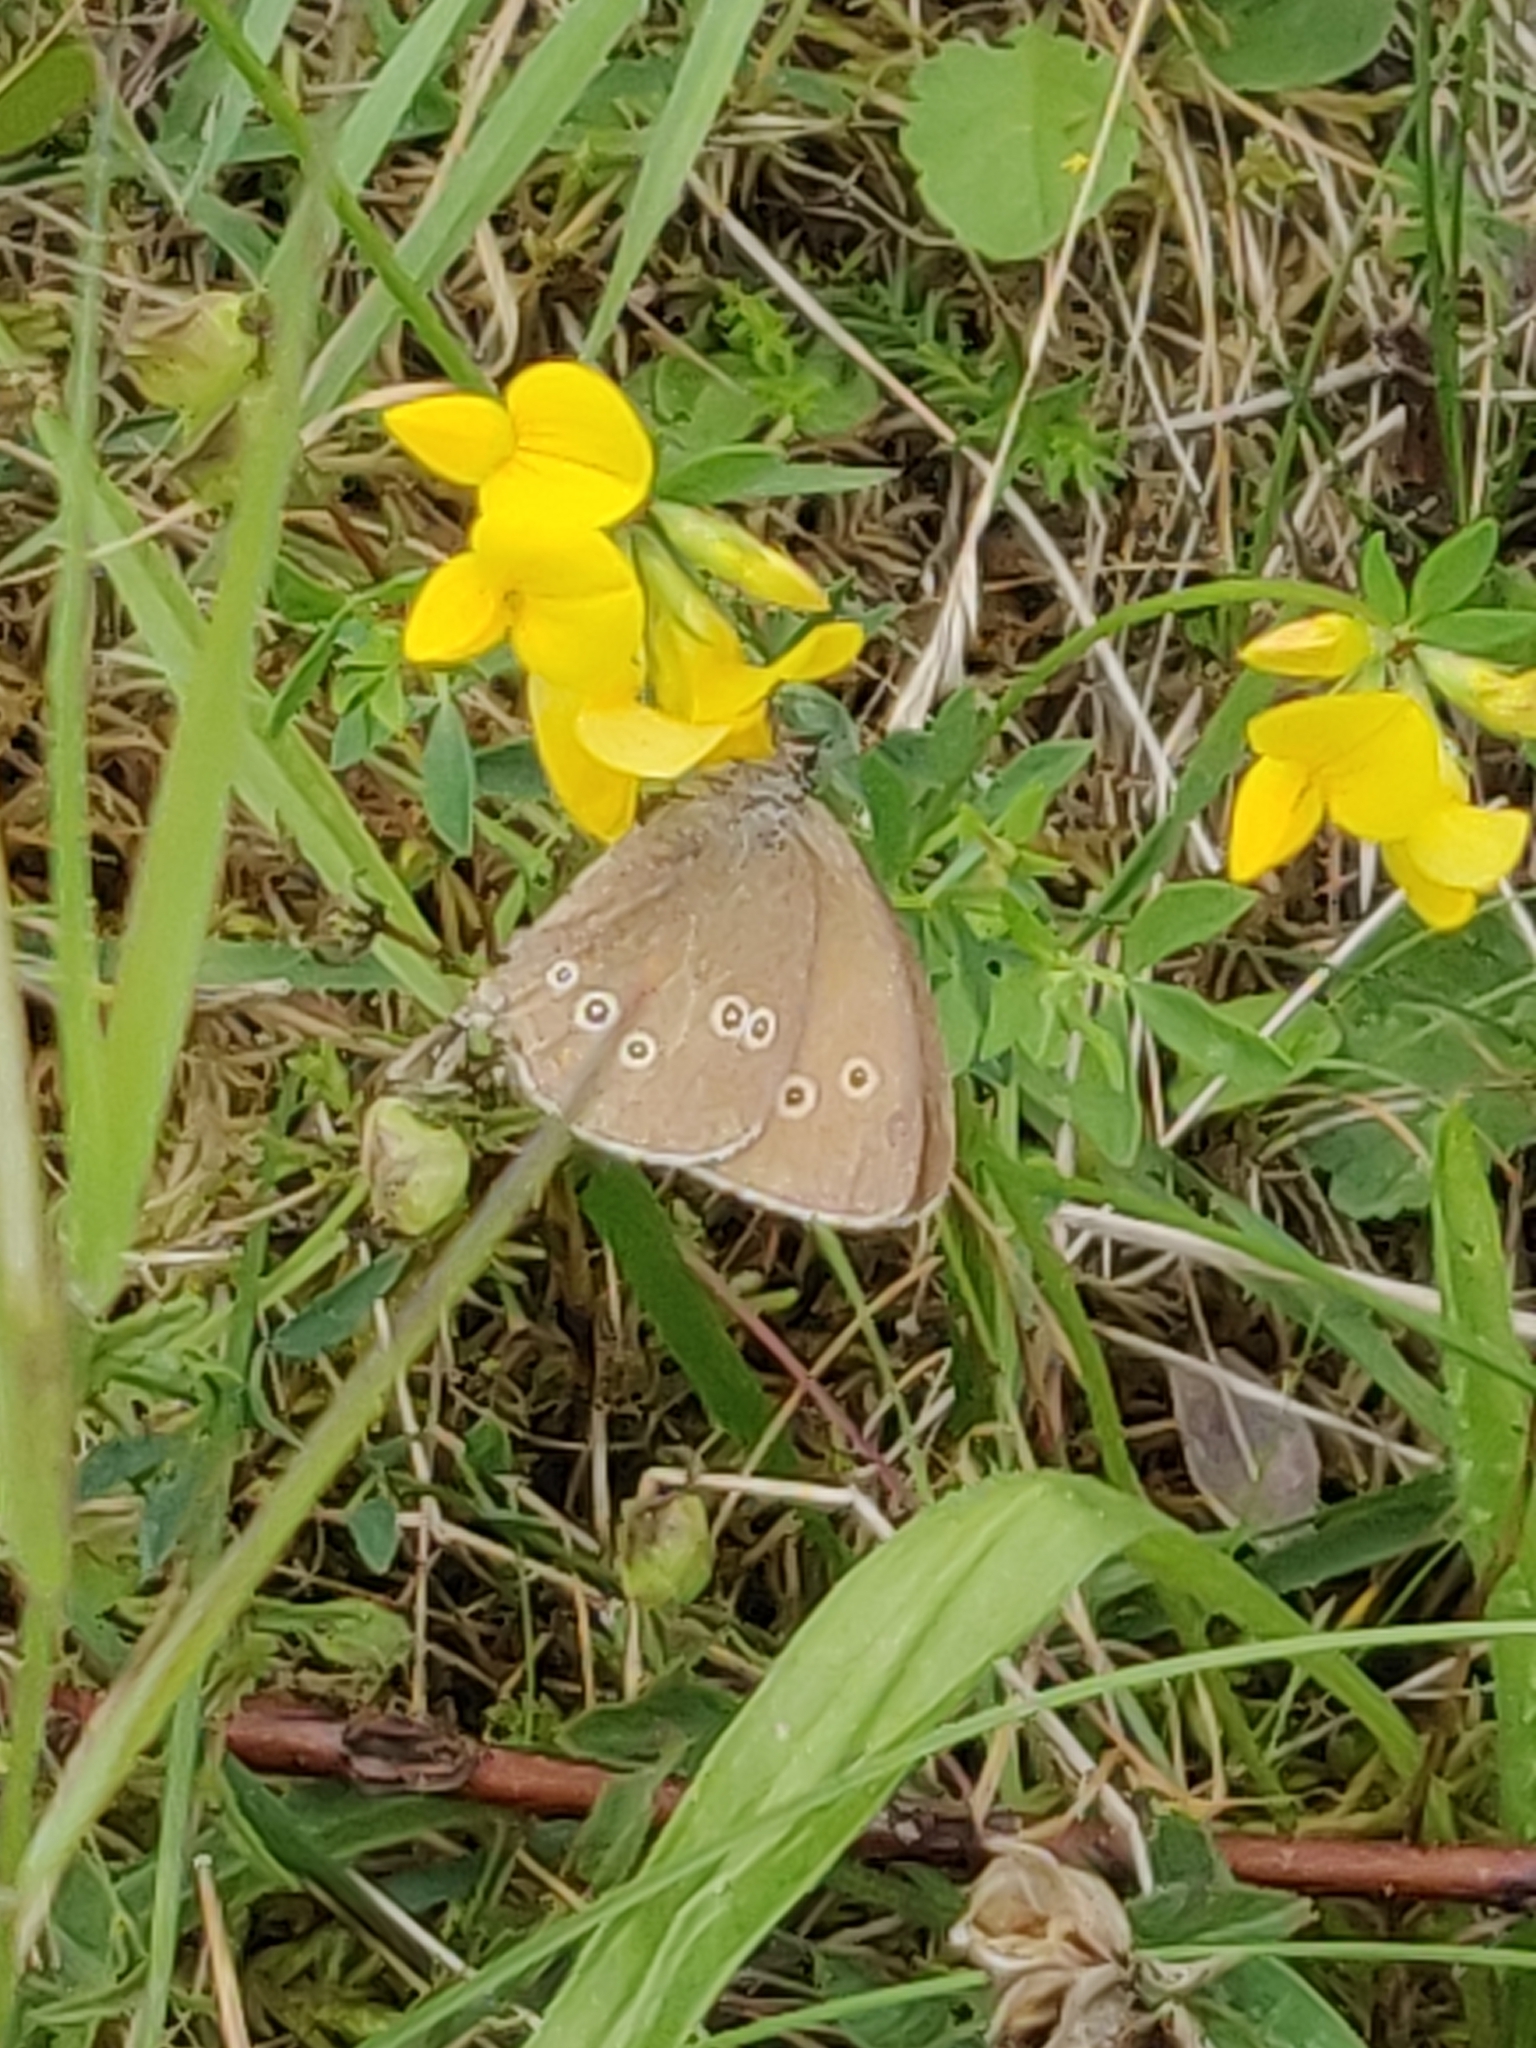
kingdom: Animalia
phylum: Arthropoda
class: Insecta
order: Lepidoptera
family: Nymphalidae
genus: Aphantopus
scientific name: Aphantopus hyperantus
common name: Ringlet
